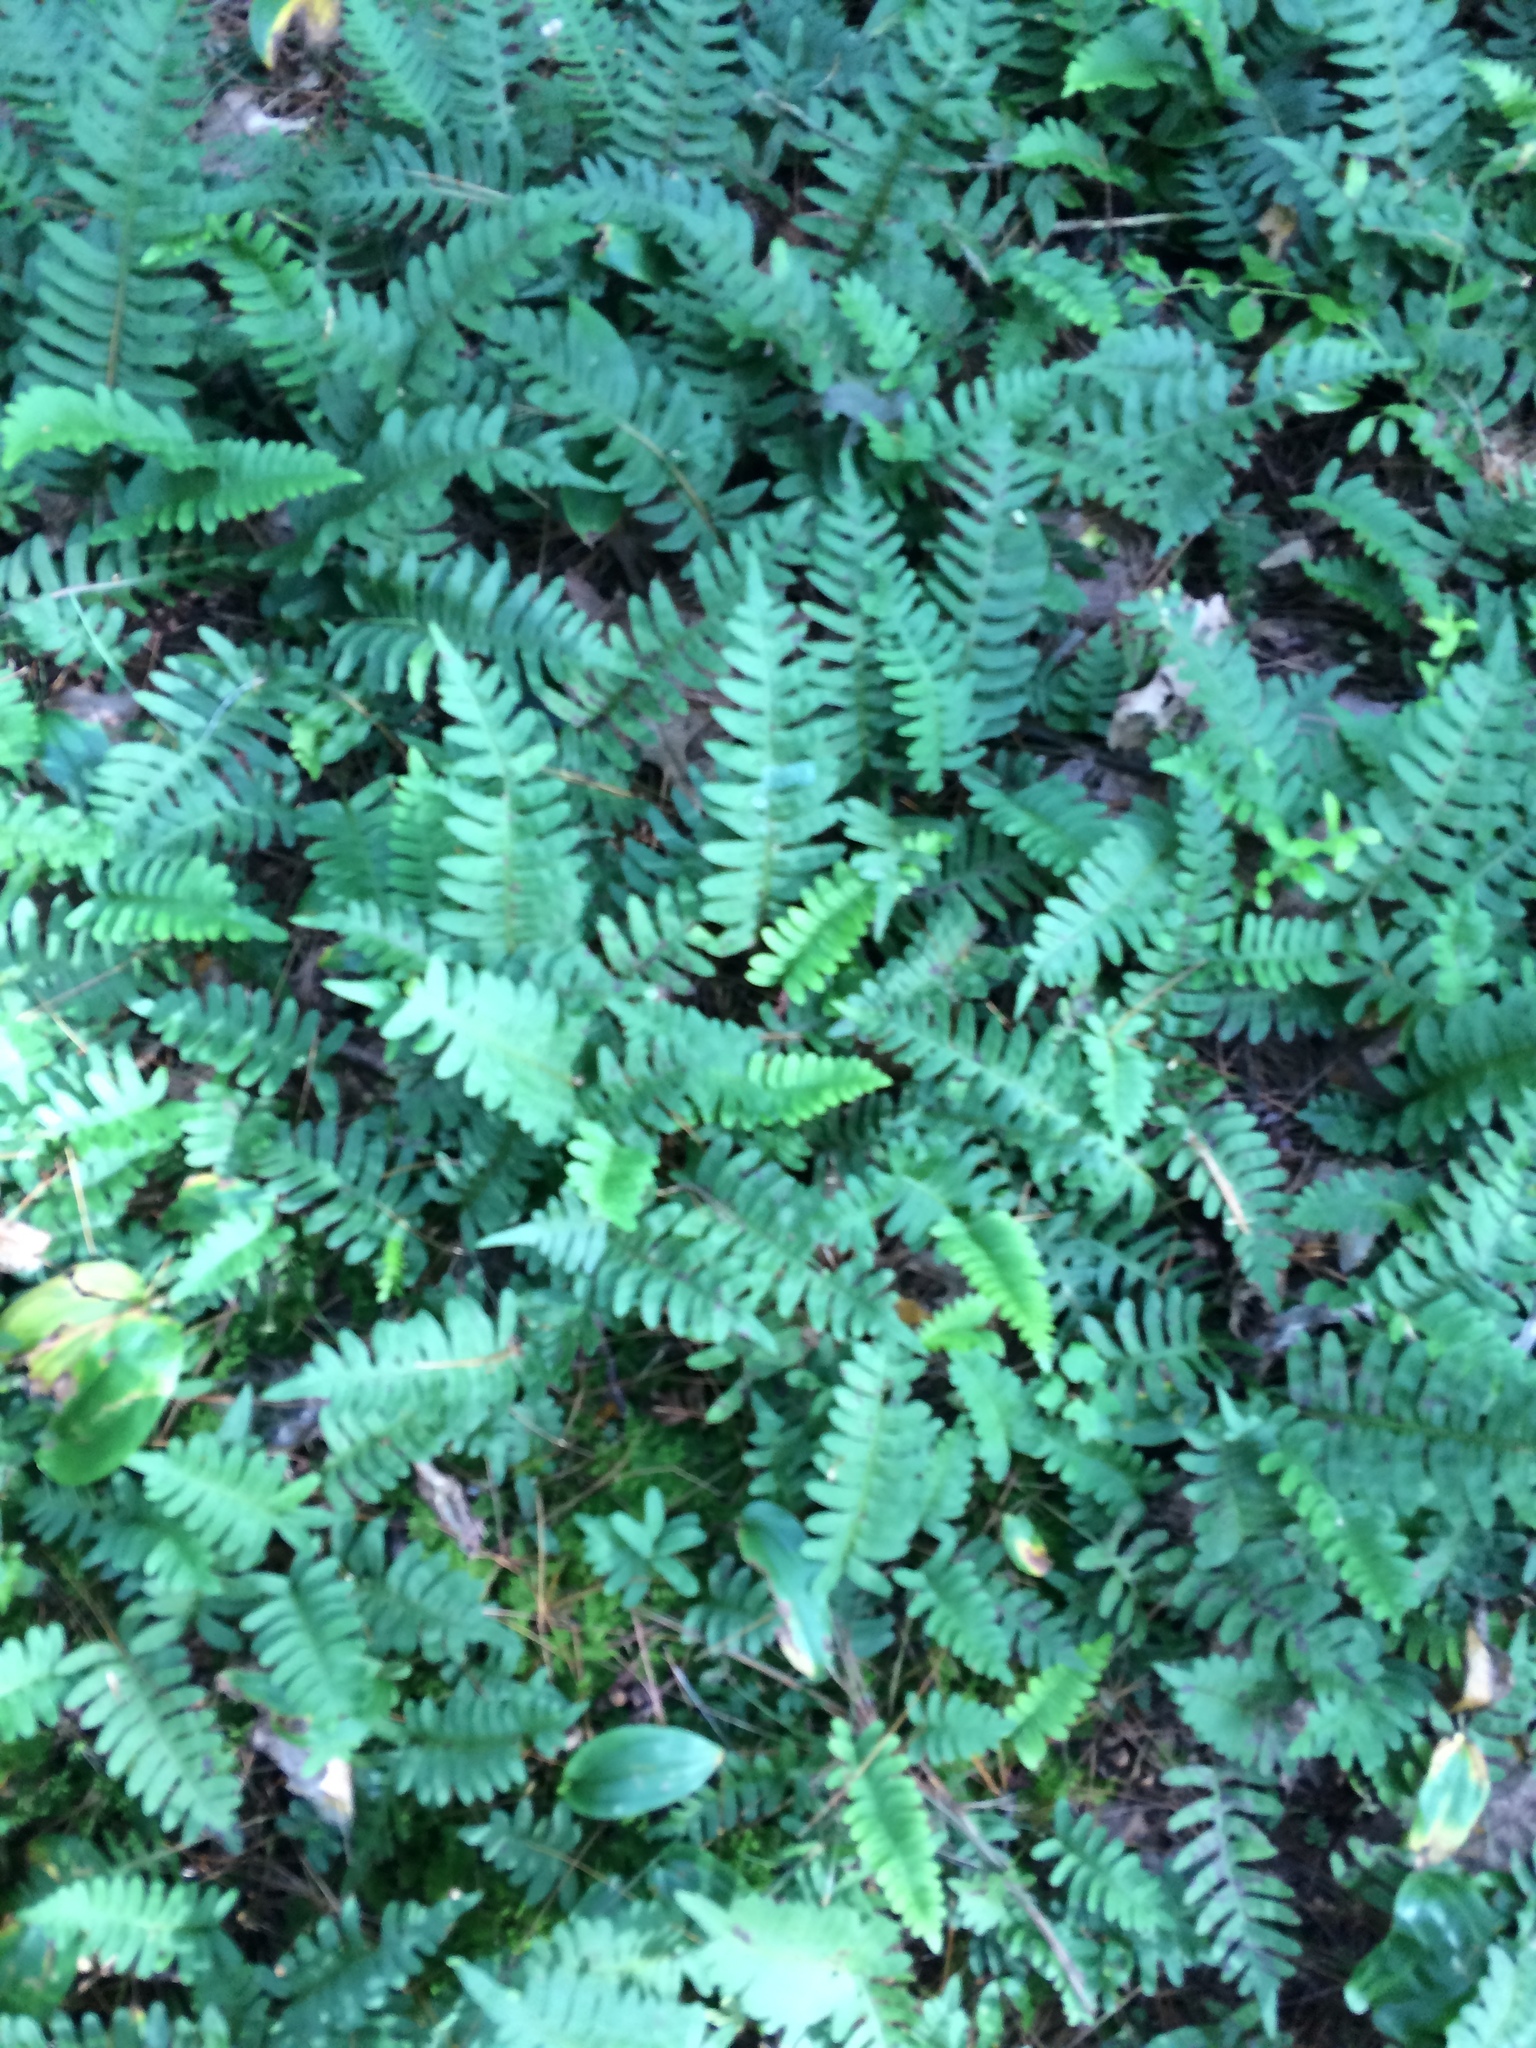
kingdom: Plantae
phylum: Tracheophyta
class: Polypodiopsida
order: Polypodiales
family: Polypodiaceae
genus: Polypodium
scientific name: Polypodium virginianum
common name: American wall fern
